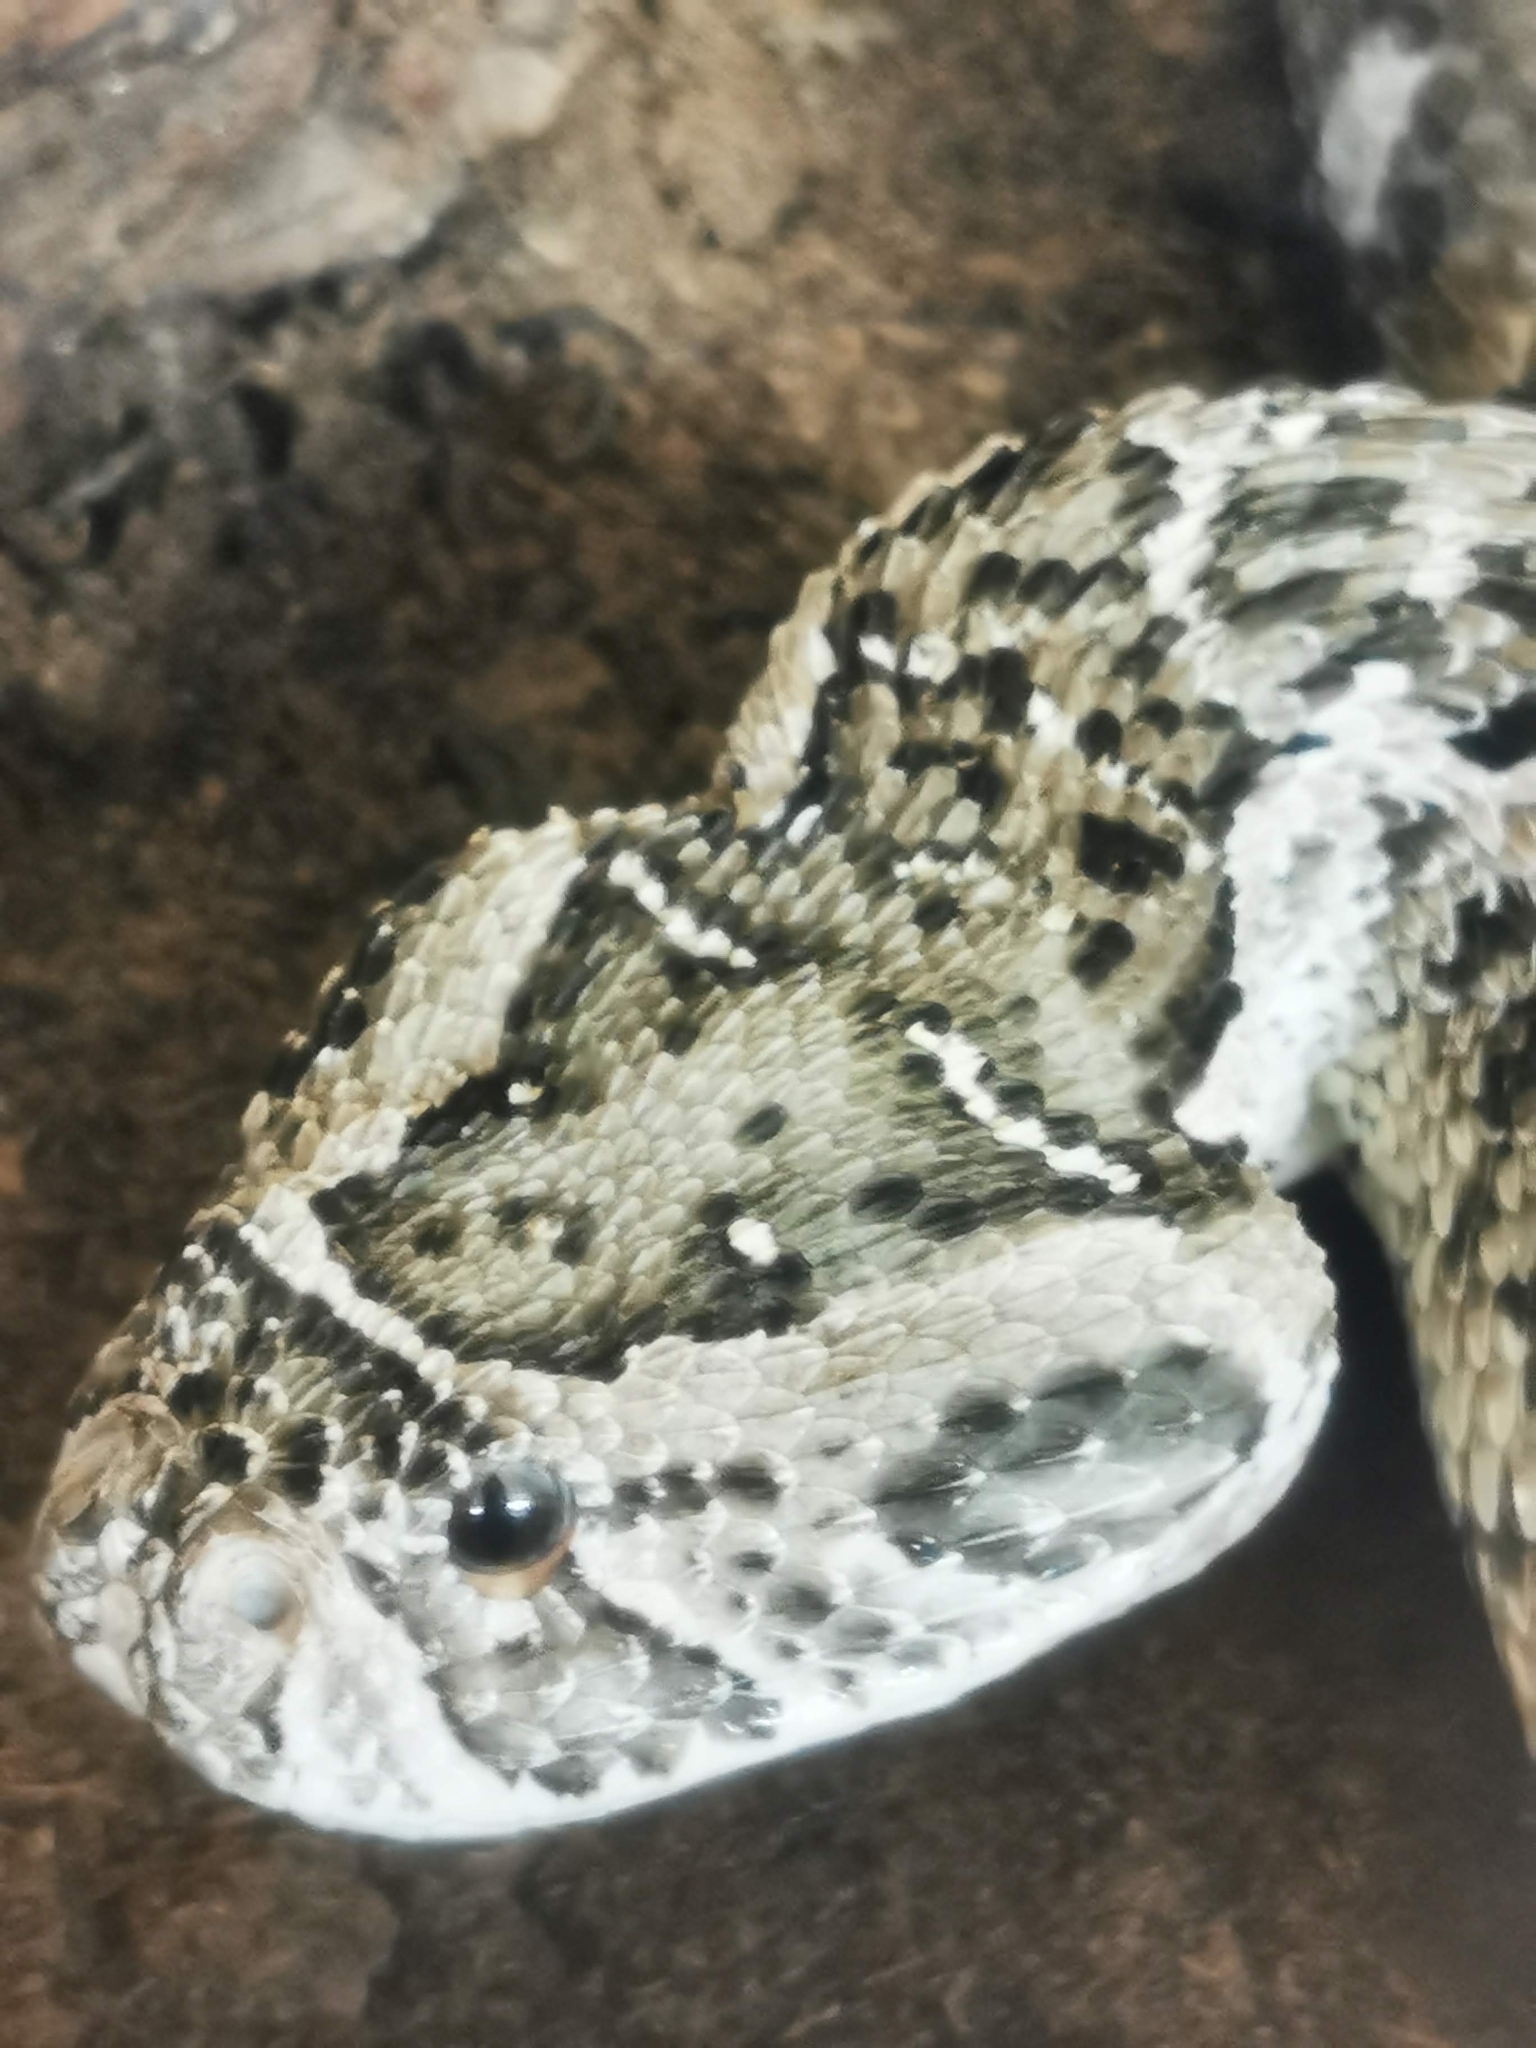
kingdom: Animalia
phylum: Chordata
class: Squamata
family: Viperidae
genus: Bitis
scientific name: Bitis arietans
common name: Puff adder
